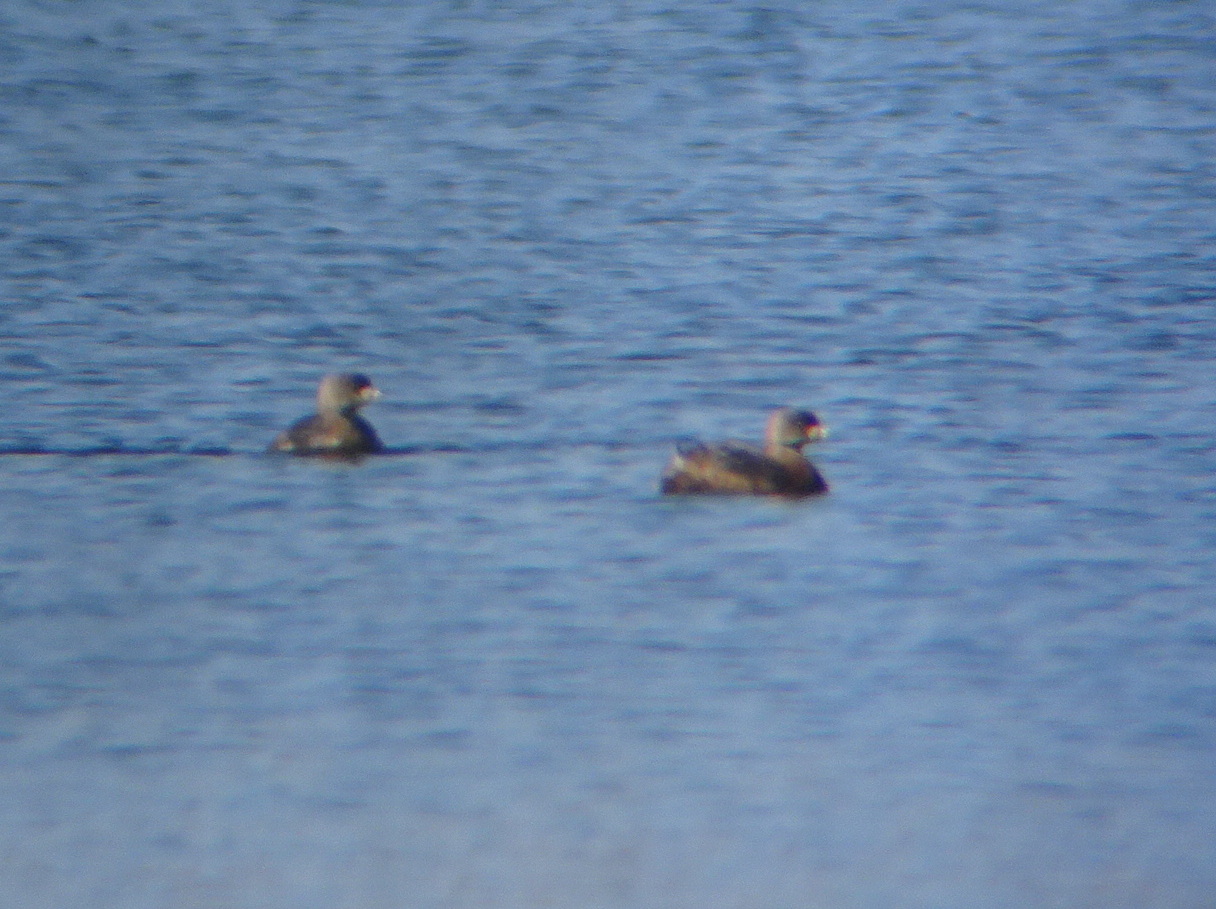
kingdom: Animalia
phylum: Chordata
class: Aves
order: Podicipediformes
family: Podicipedidae
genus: Podilymbus
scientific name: Podilymbus podiceps
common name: Pied-billed grebe
